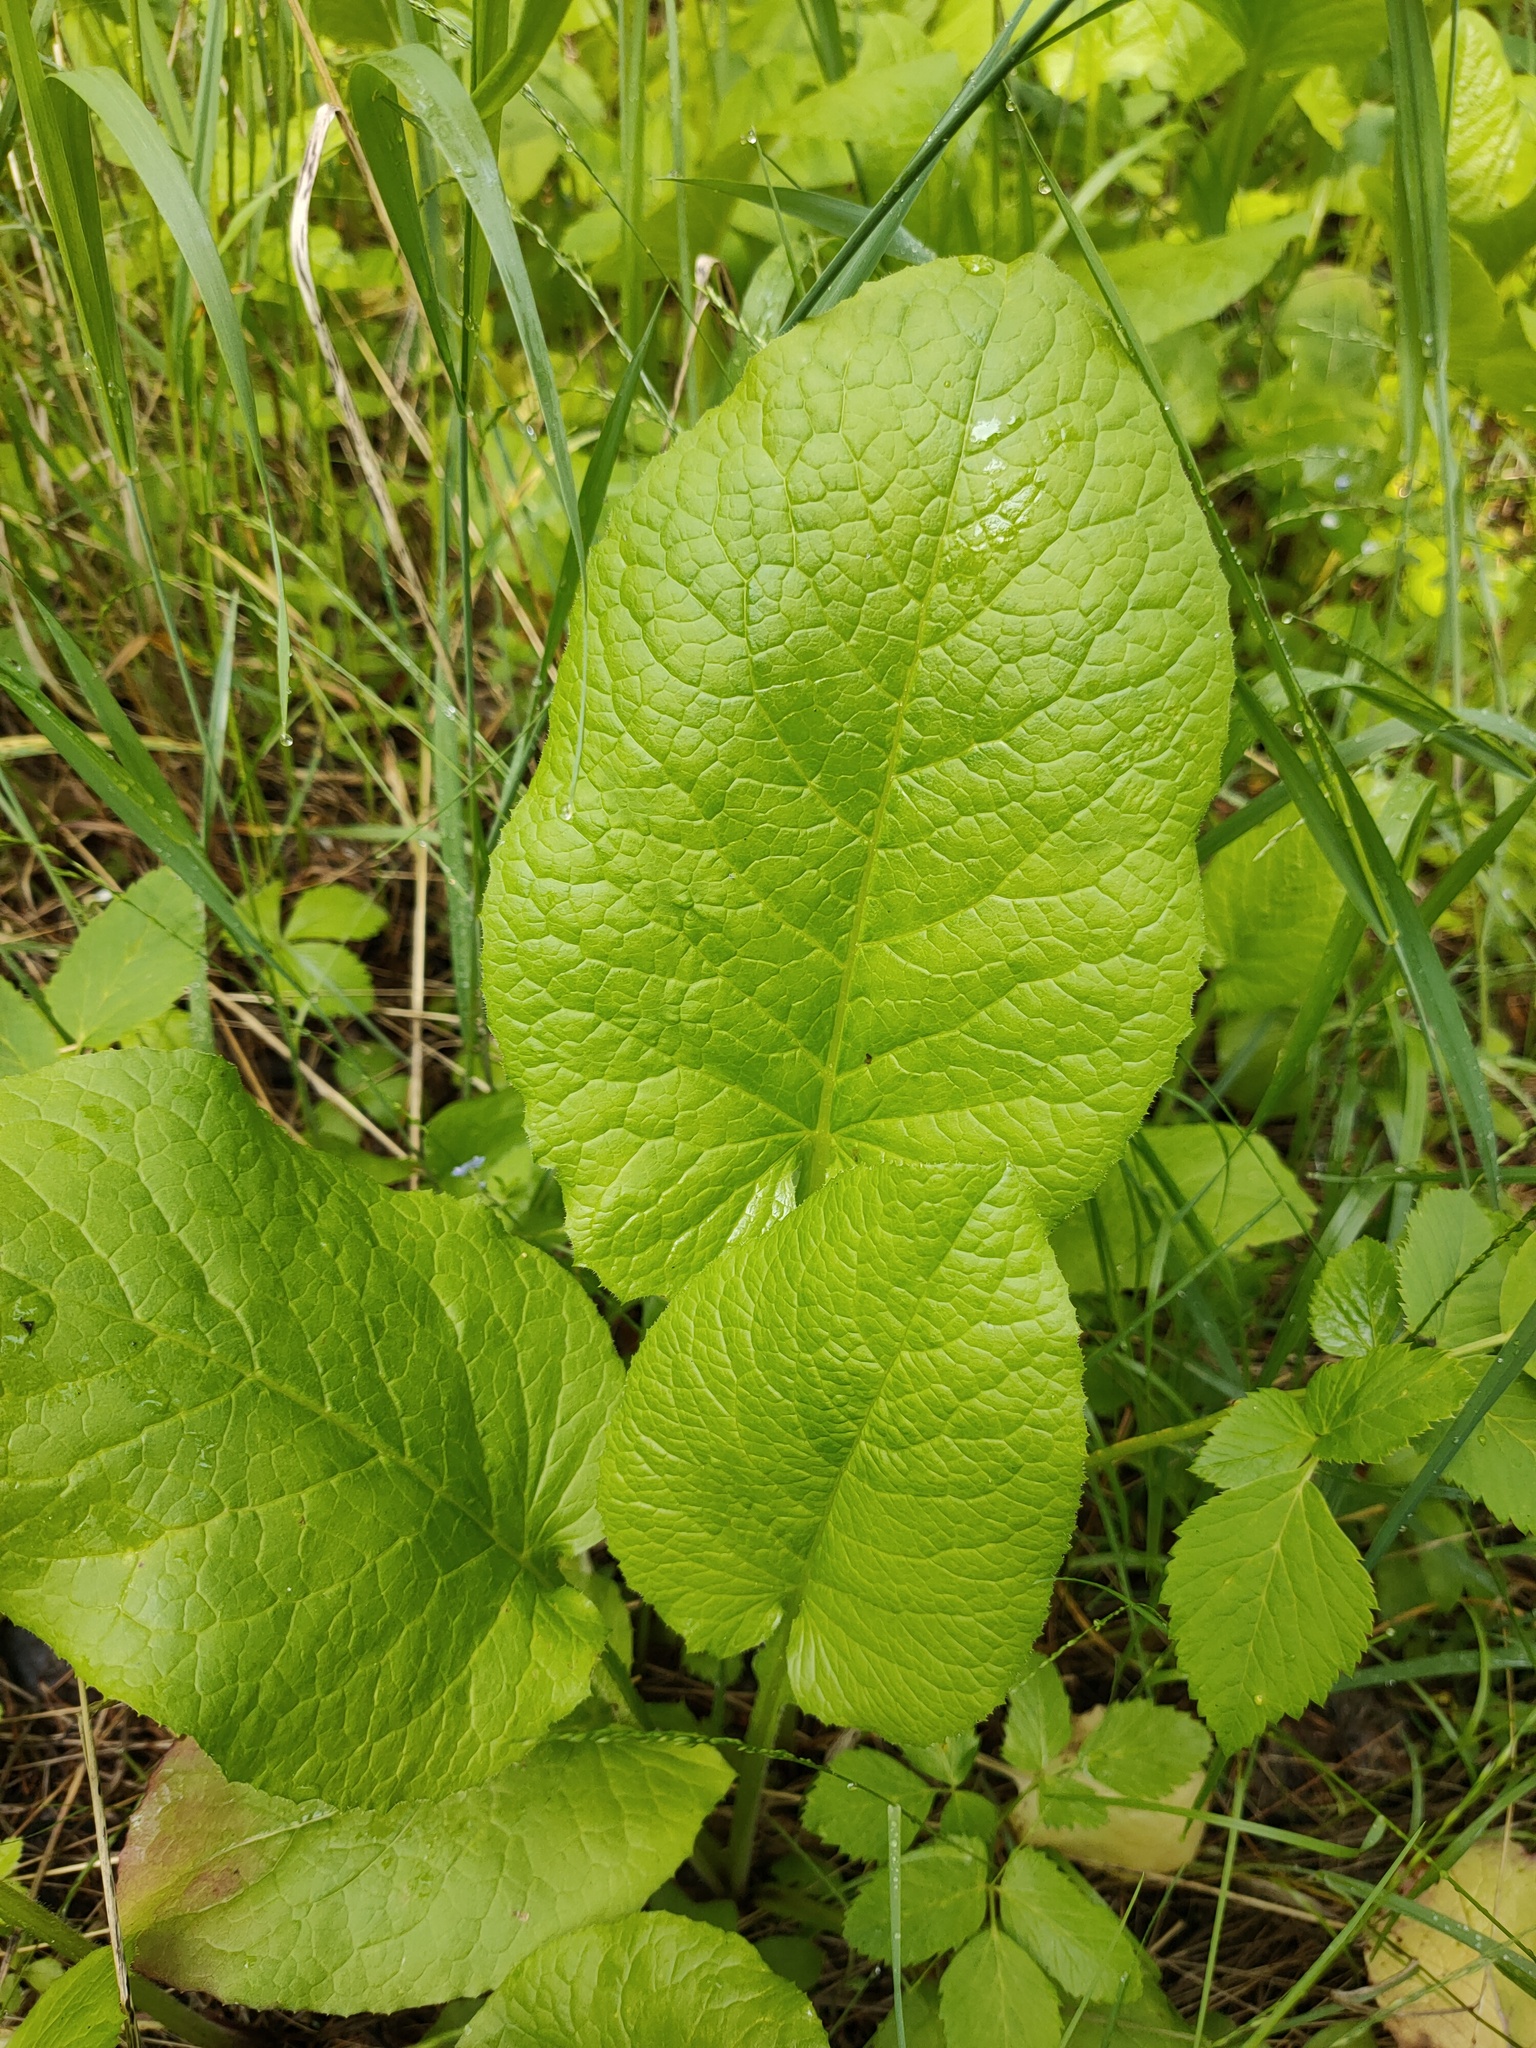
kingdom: Plantae
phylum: Tracheophyta
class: Magnoliopsida
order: Asterales
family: Asteraceae
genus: Lactuca
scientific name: Lactuca macrophylla
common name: Common blue-sow-thistle
